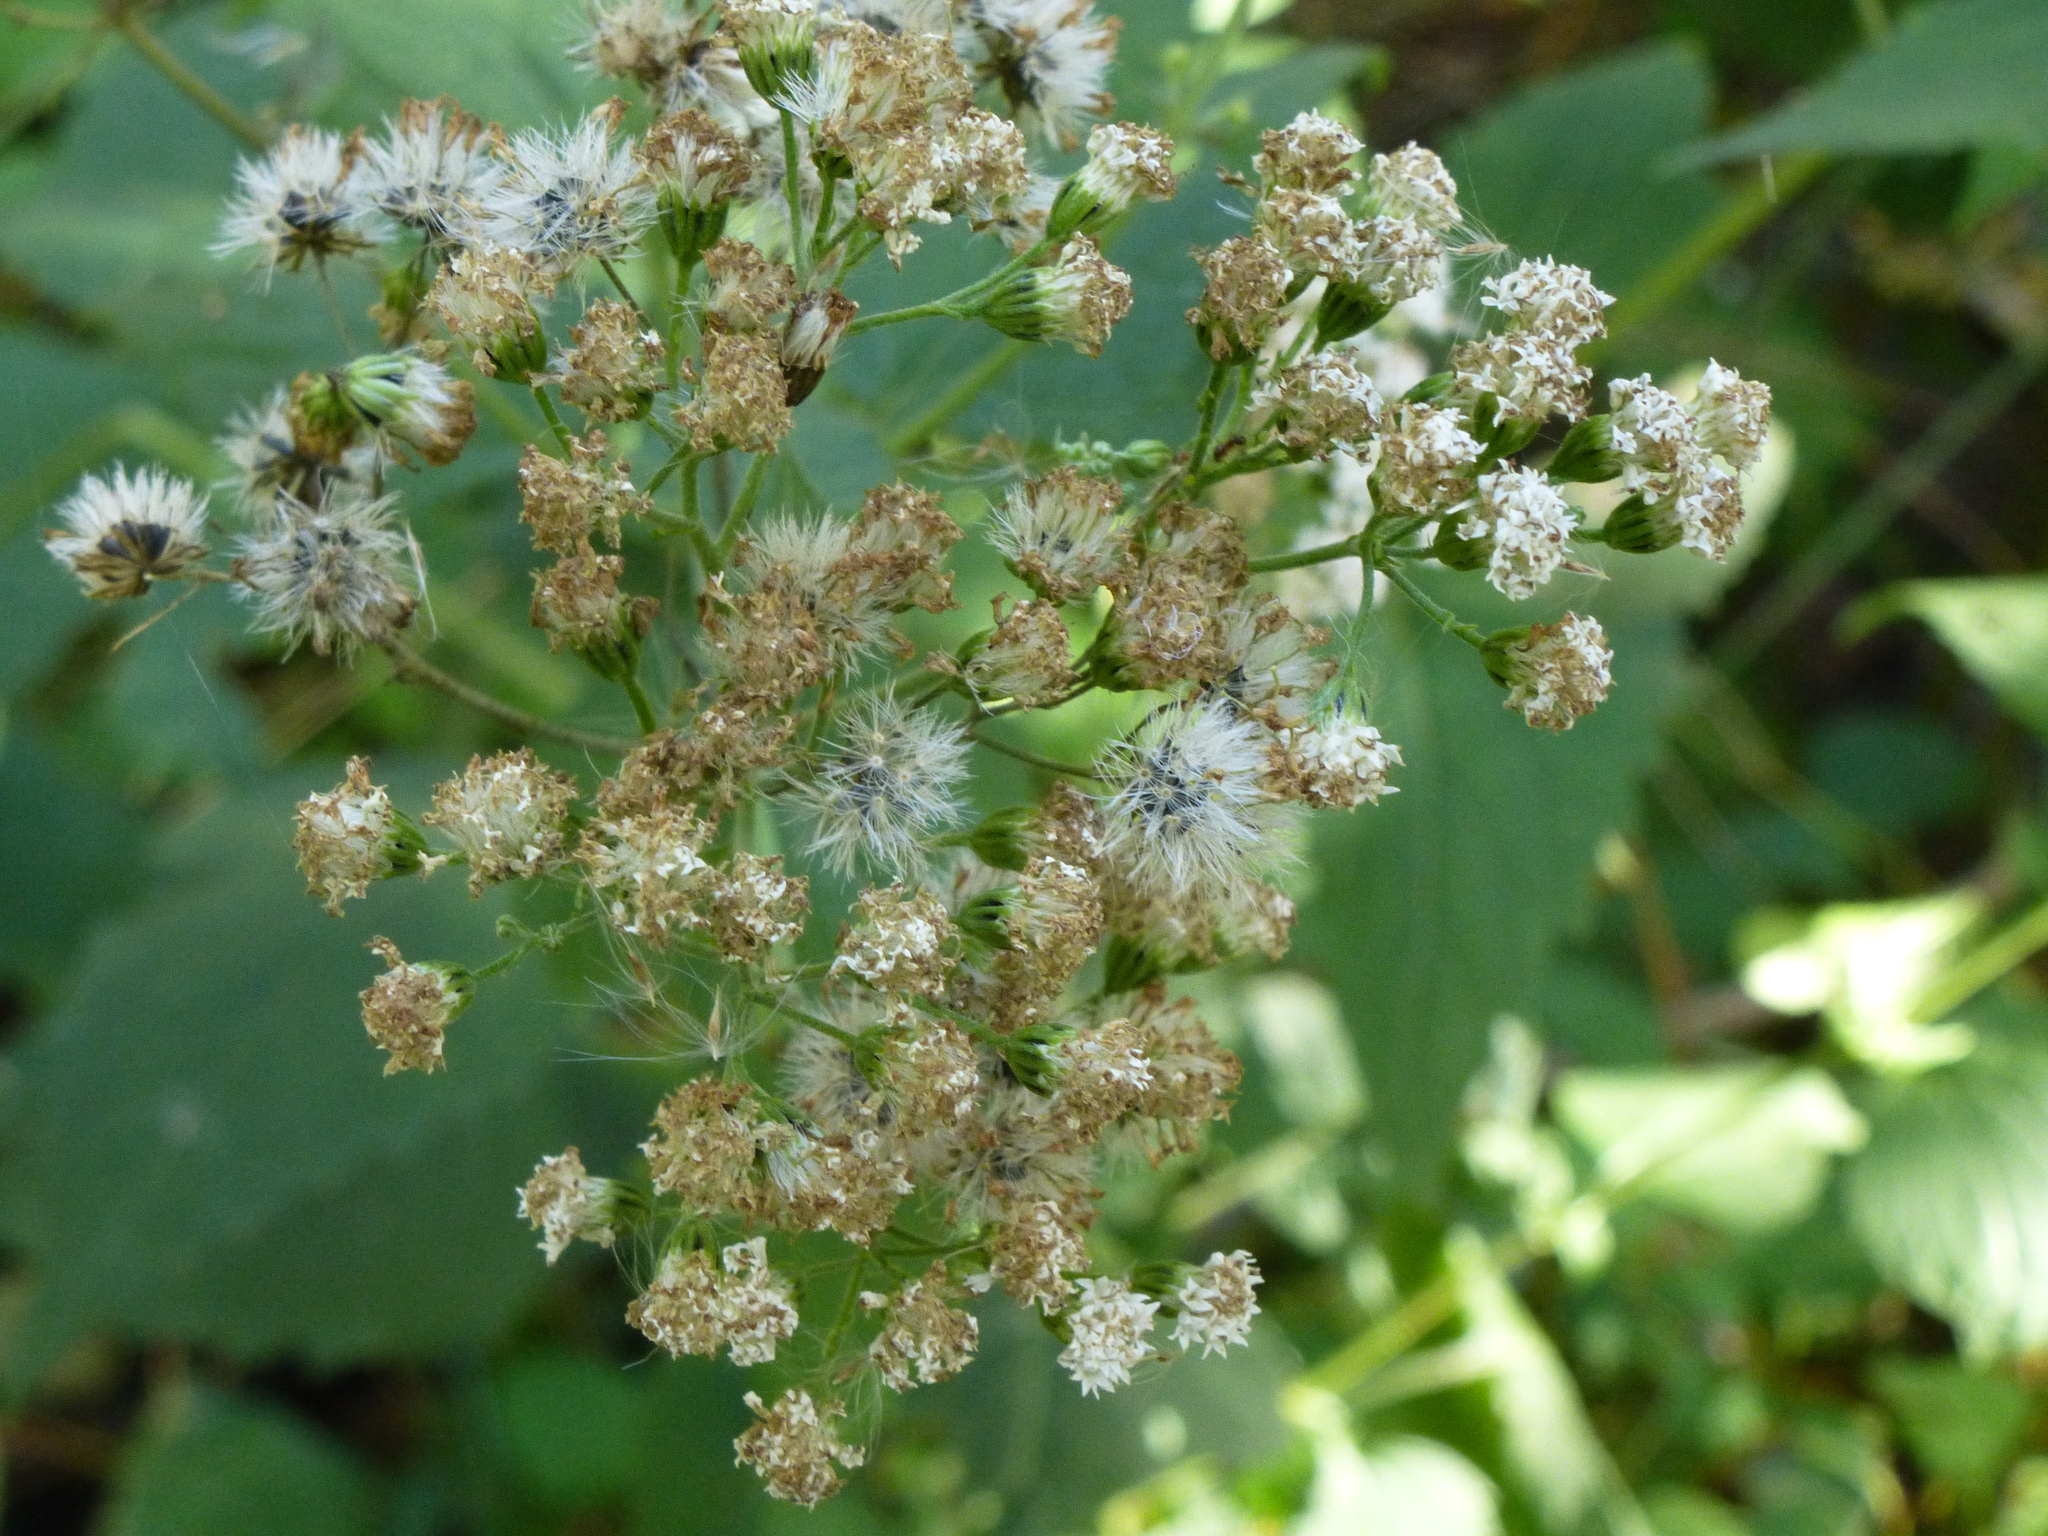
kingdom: Plantae
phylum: Tracheophyta
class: Magnoliopsida
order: Asterales
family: Asteraceae
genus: Ageratina
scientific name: Ageratina altissima
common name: White snakeroot
